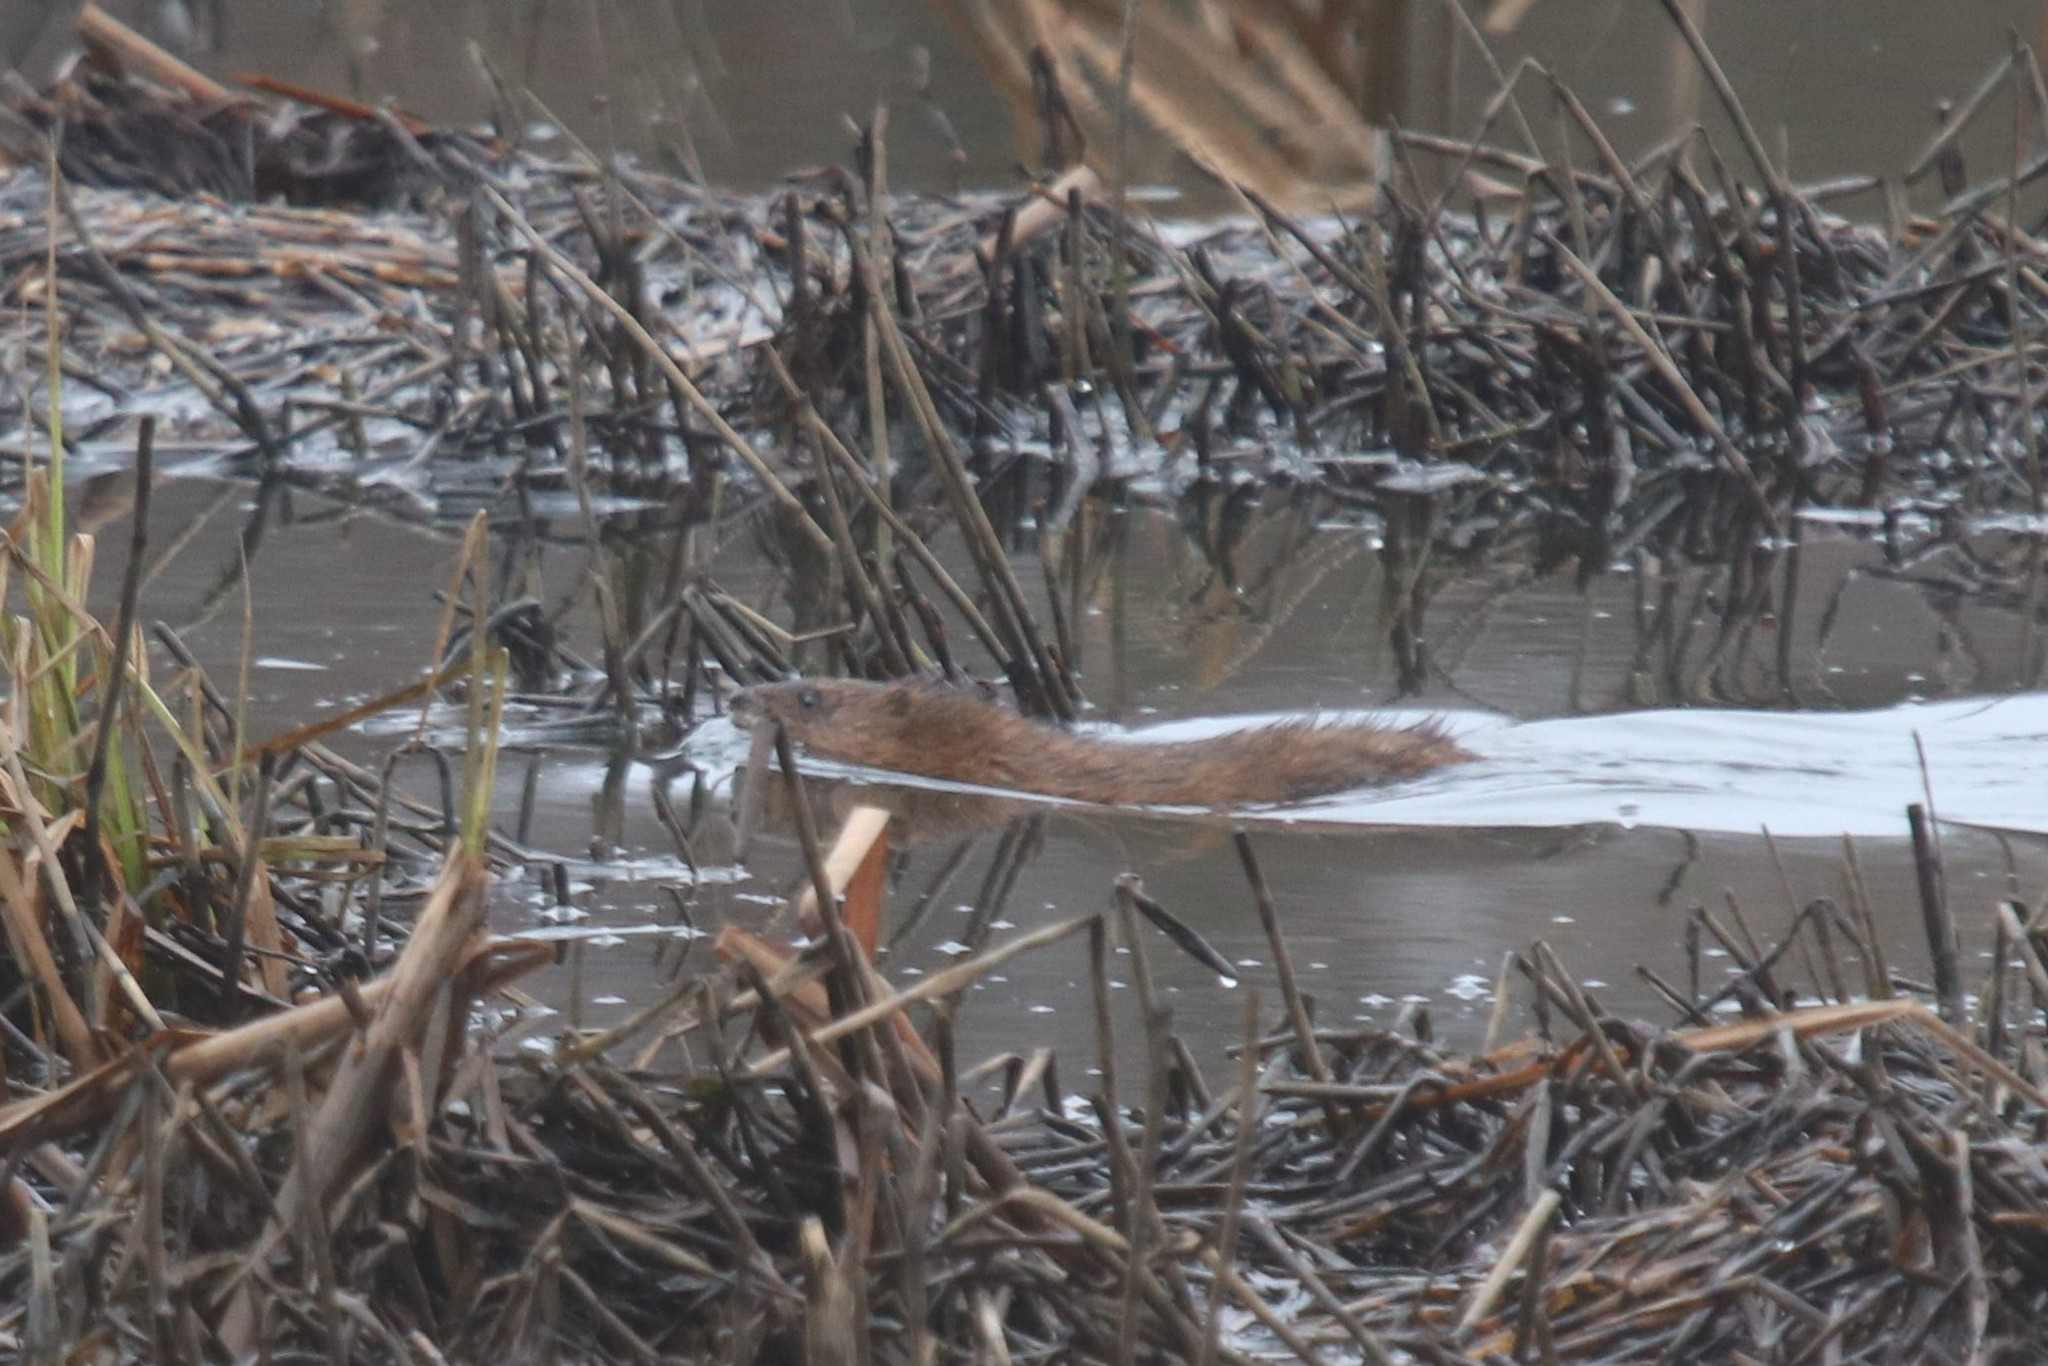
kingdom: Animalia
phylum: Chordata
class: Mammalia
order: Rodentia
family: Cricetidae
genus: Ondatra
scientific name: Ondatra zibethicus
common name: Muskrat
